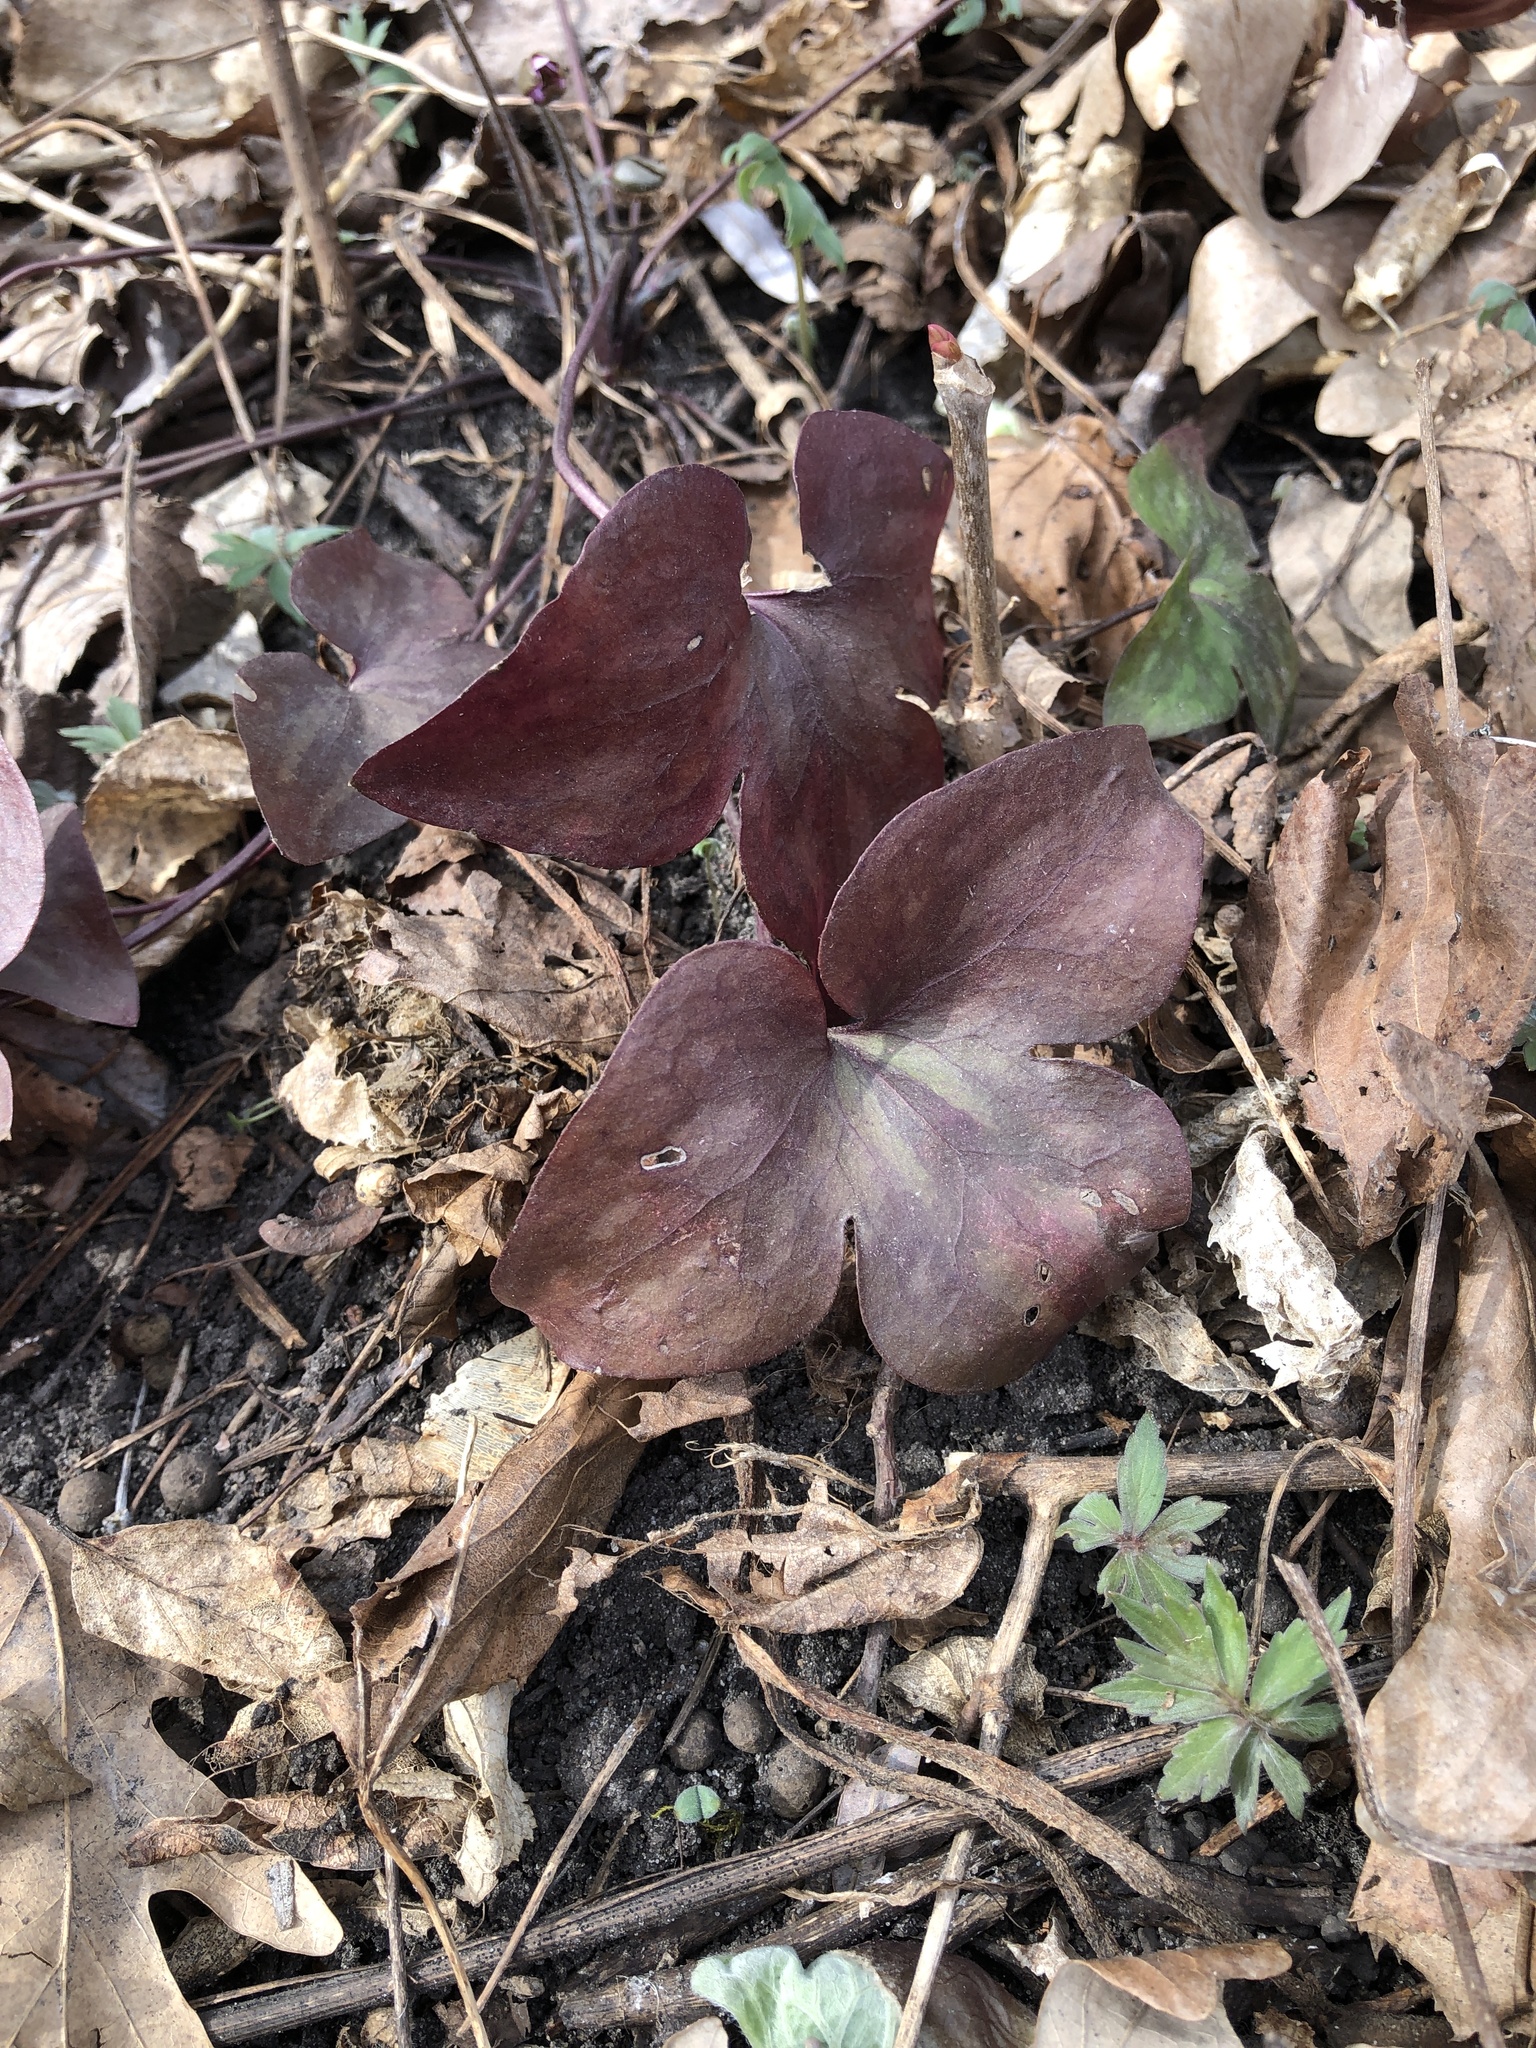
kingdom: Plantae
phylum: Tracheophyta
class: Magnoliopsida
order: Ranunculales
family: Ranunculaceae
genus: Hepatica
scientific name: Hepatica acutiloba
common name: Sharp-lobed hepatica
